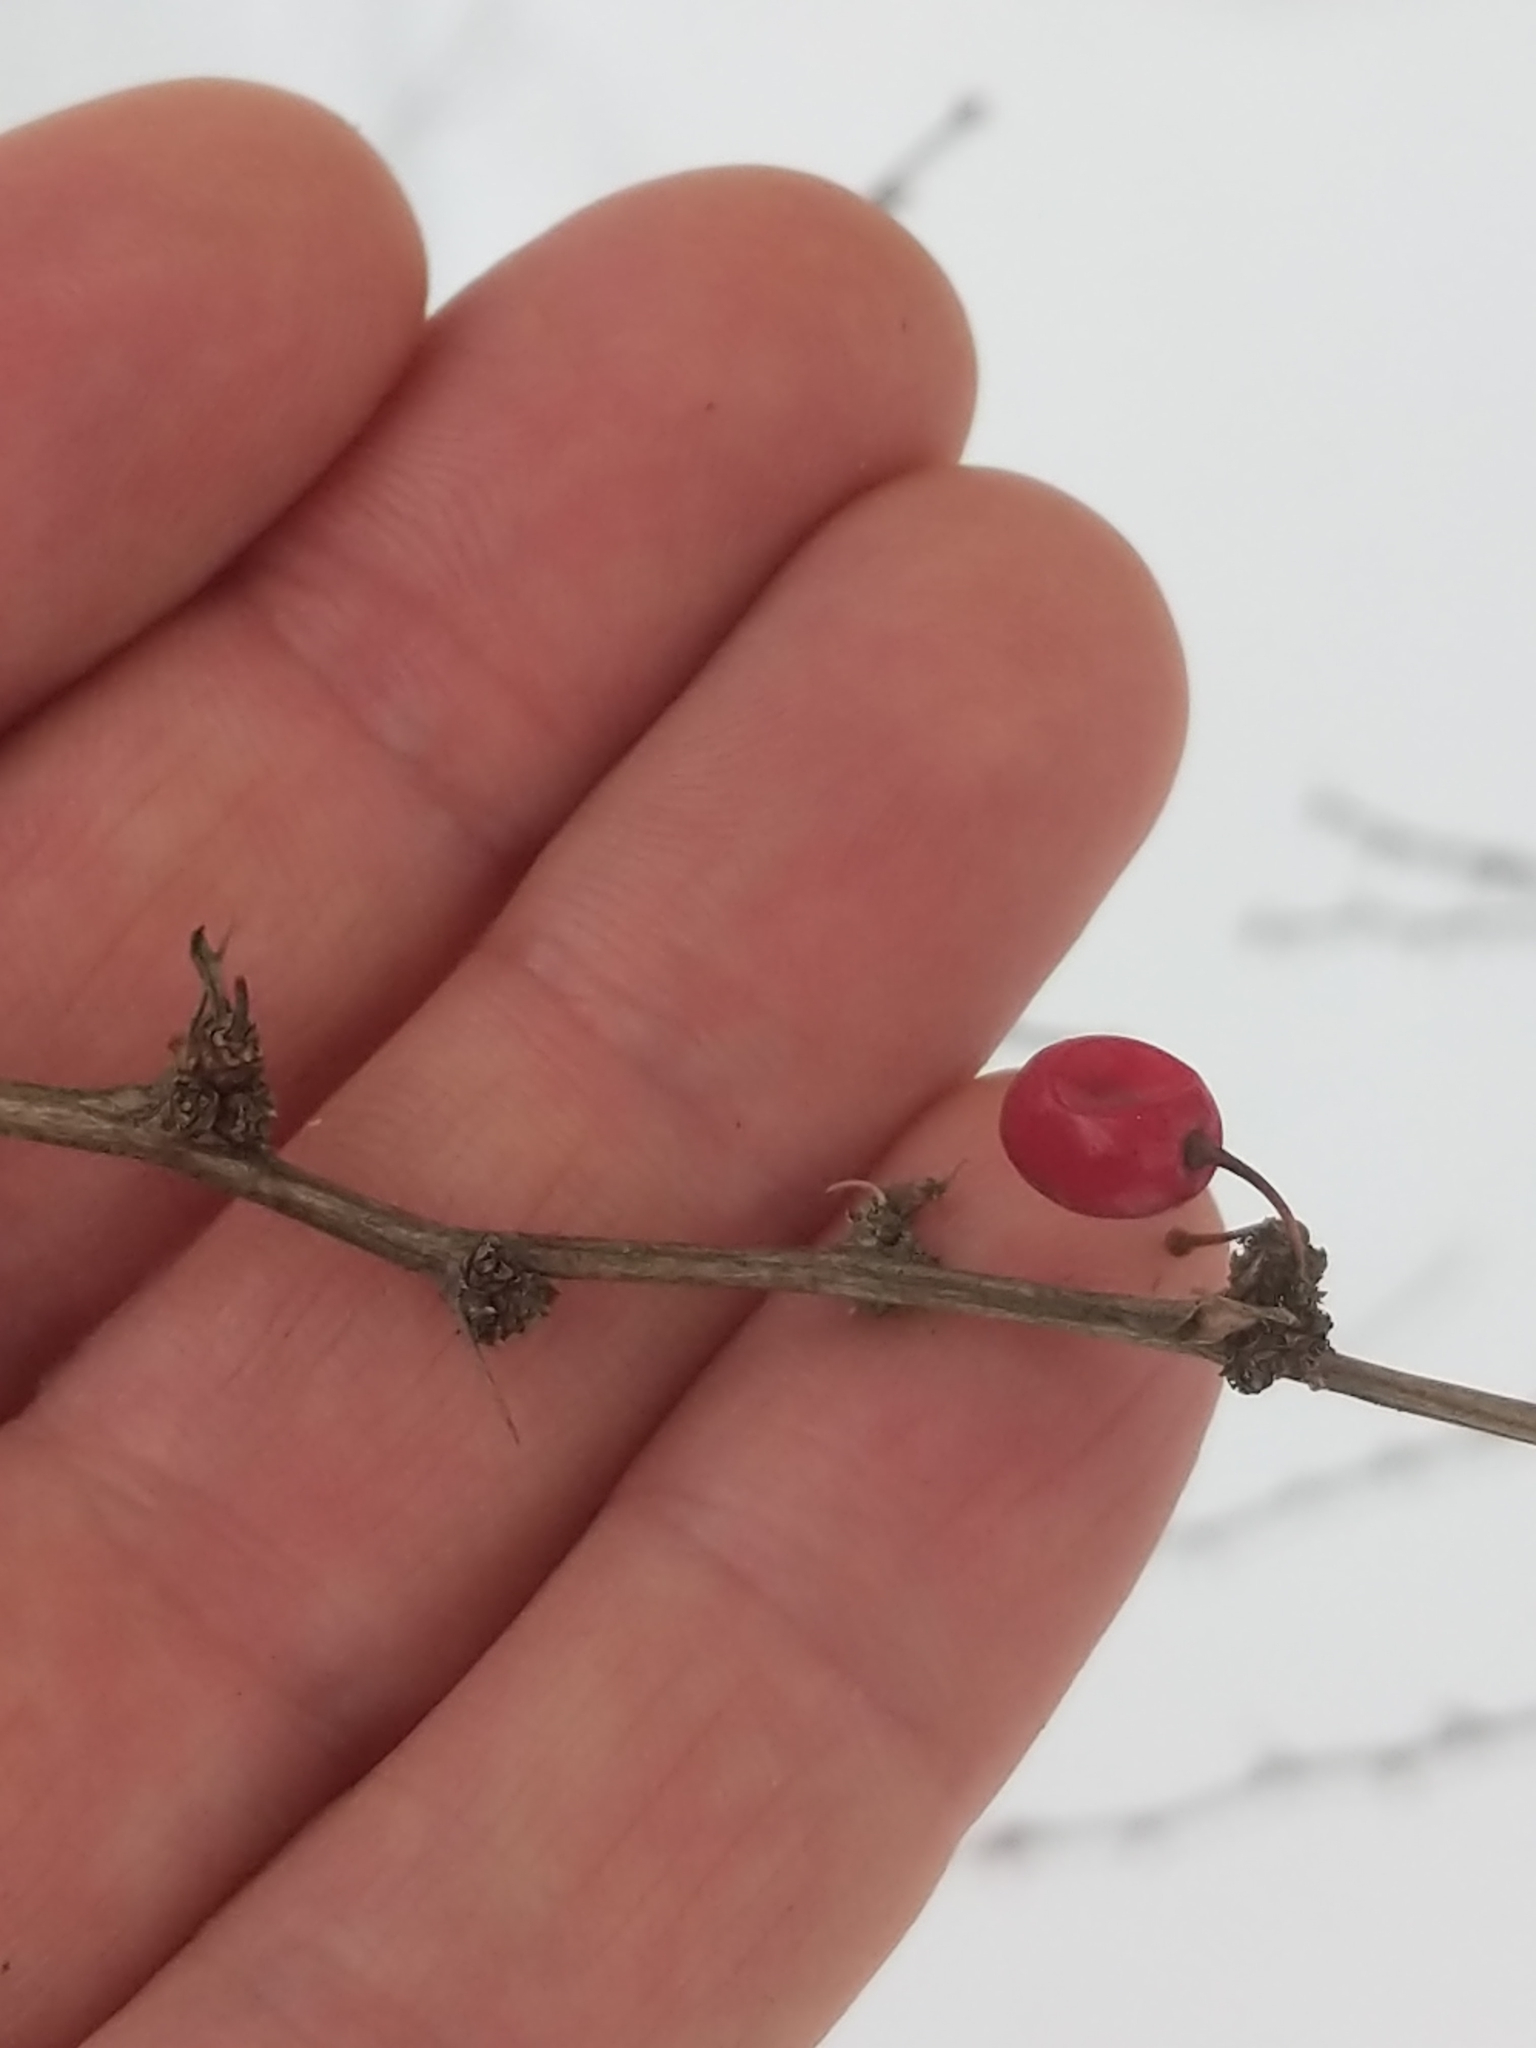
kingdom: Plantae
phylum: Tracheophyta
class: Magnoliopsida
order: Ranunculales
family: Berberidaceae
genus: Berberis
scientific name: Berberis thunbergii
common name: Japanese barberry
